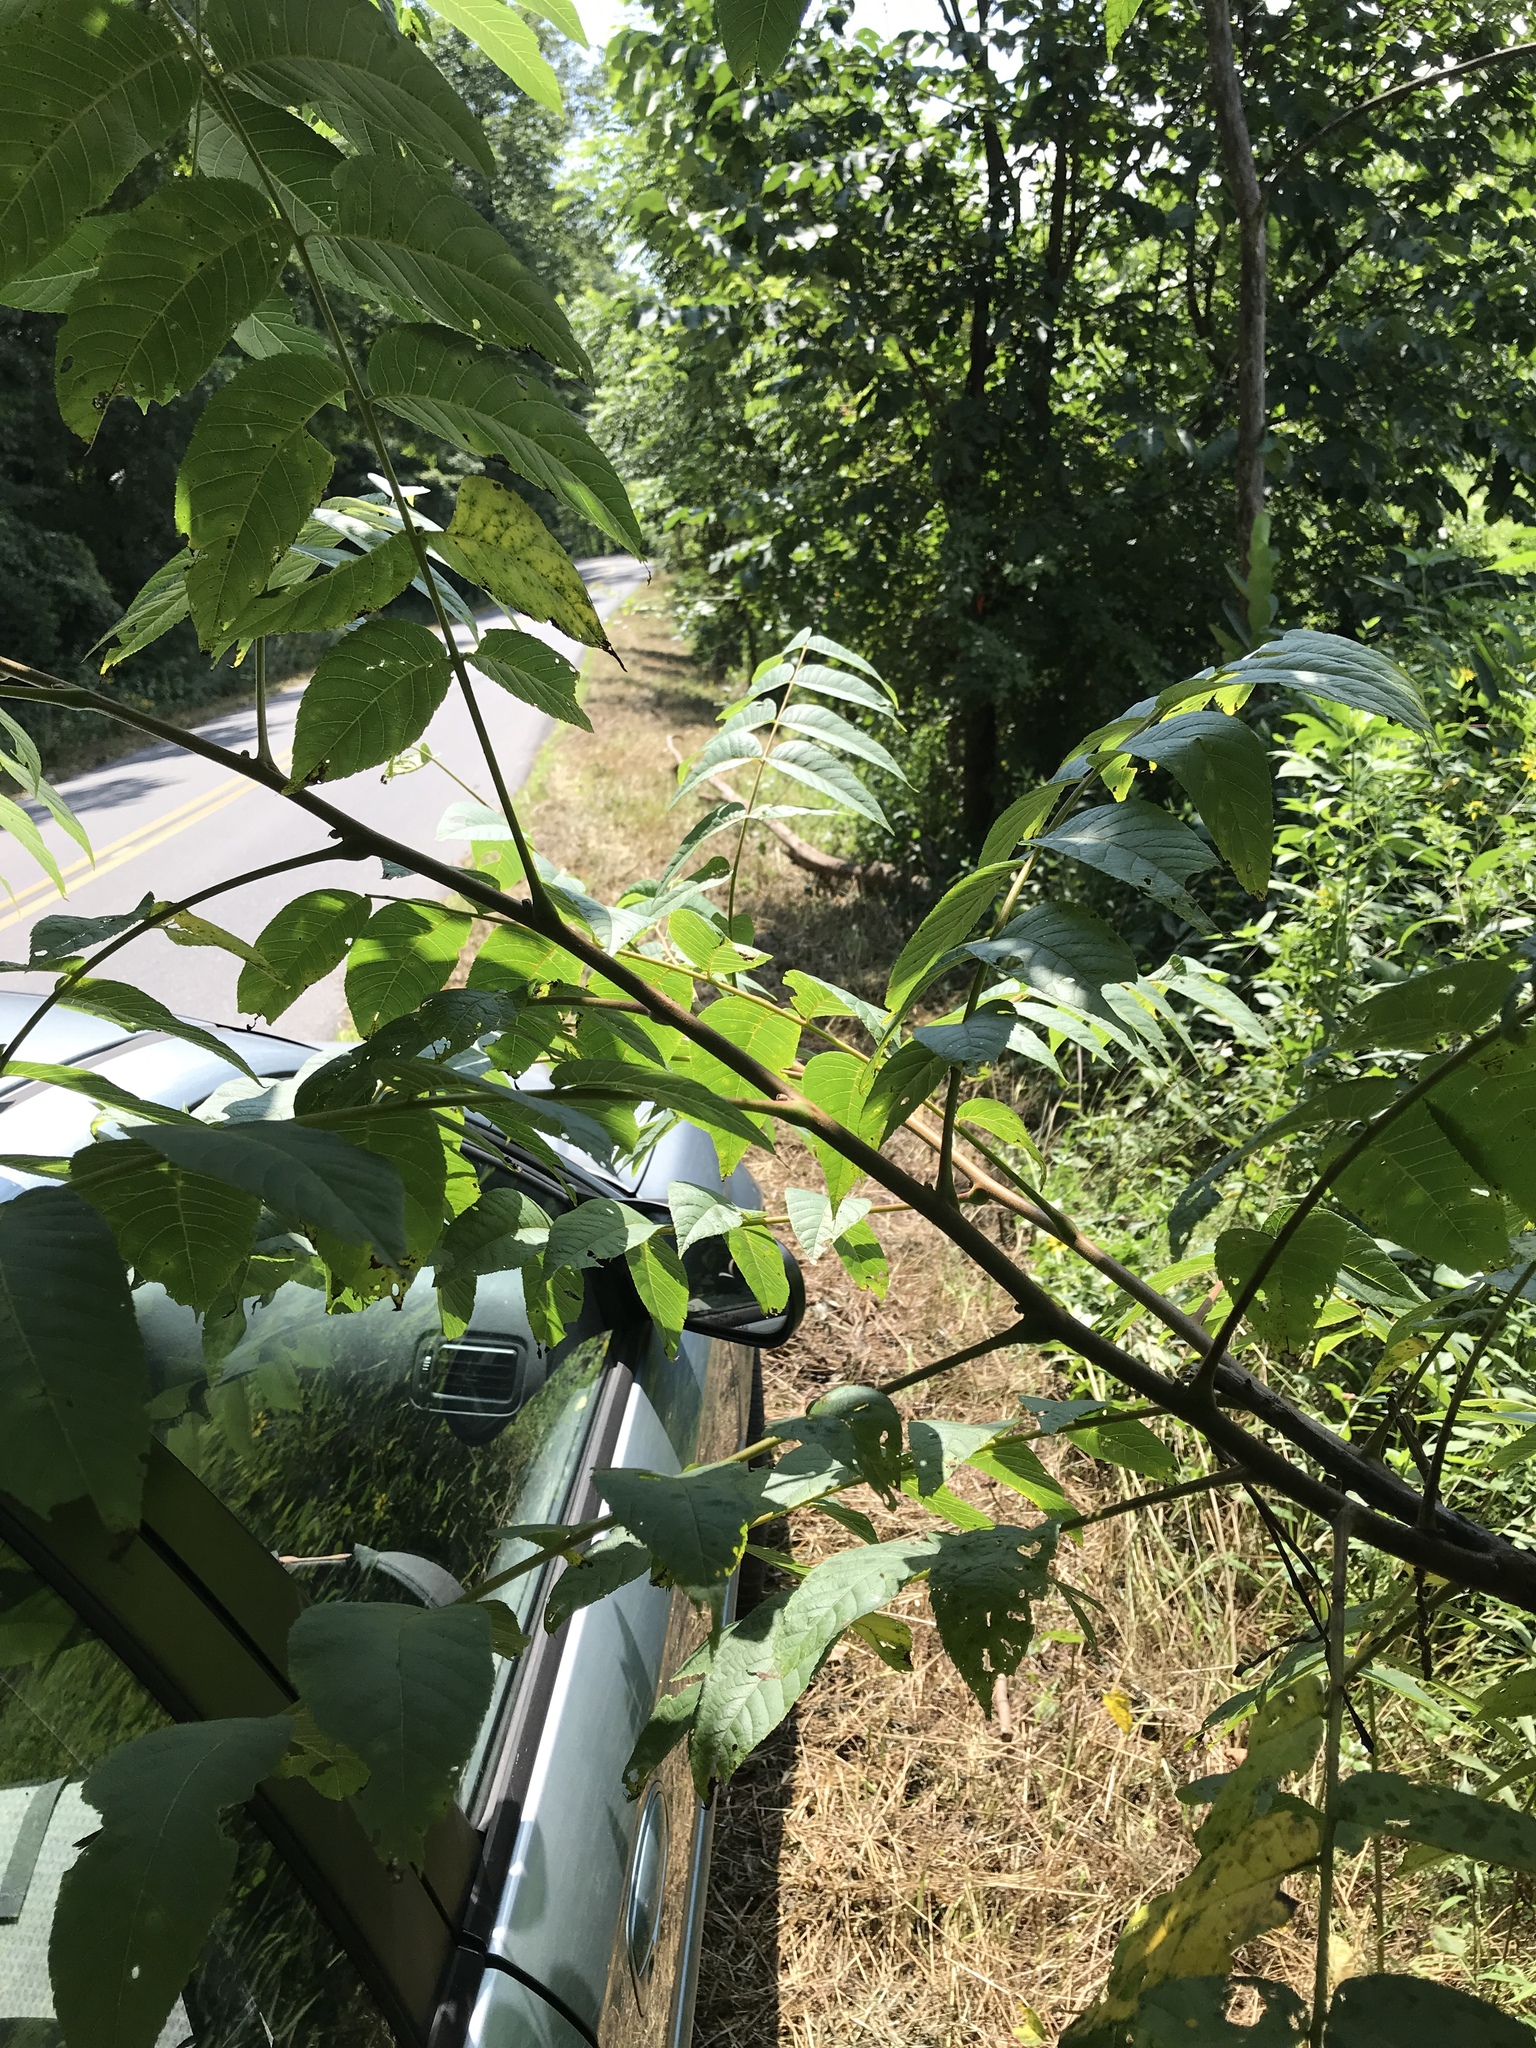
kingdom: Plantae
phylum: Tracheophyta
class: Magnoliopsida
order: Fagales
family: Juglandaceae
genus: Juglans
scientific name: Juglans nigra
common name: Black walnut
